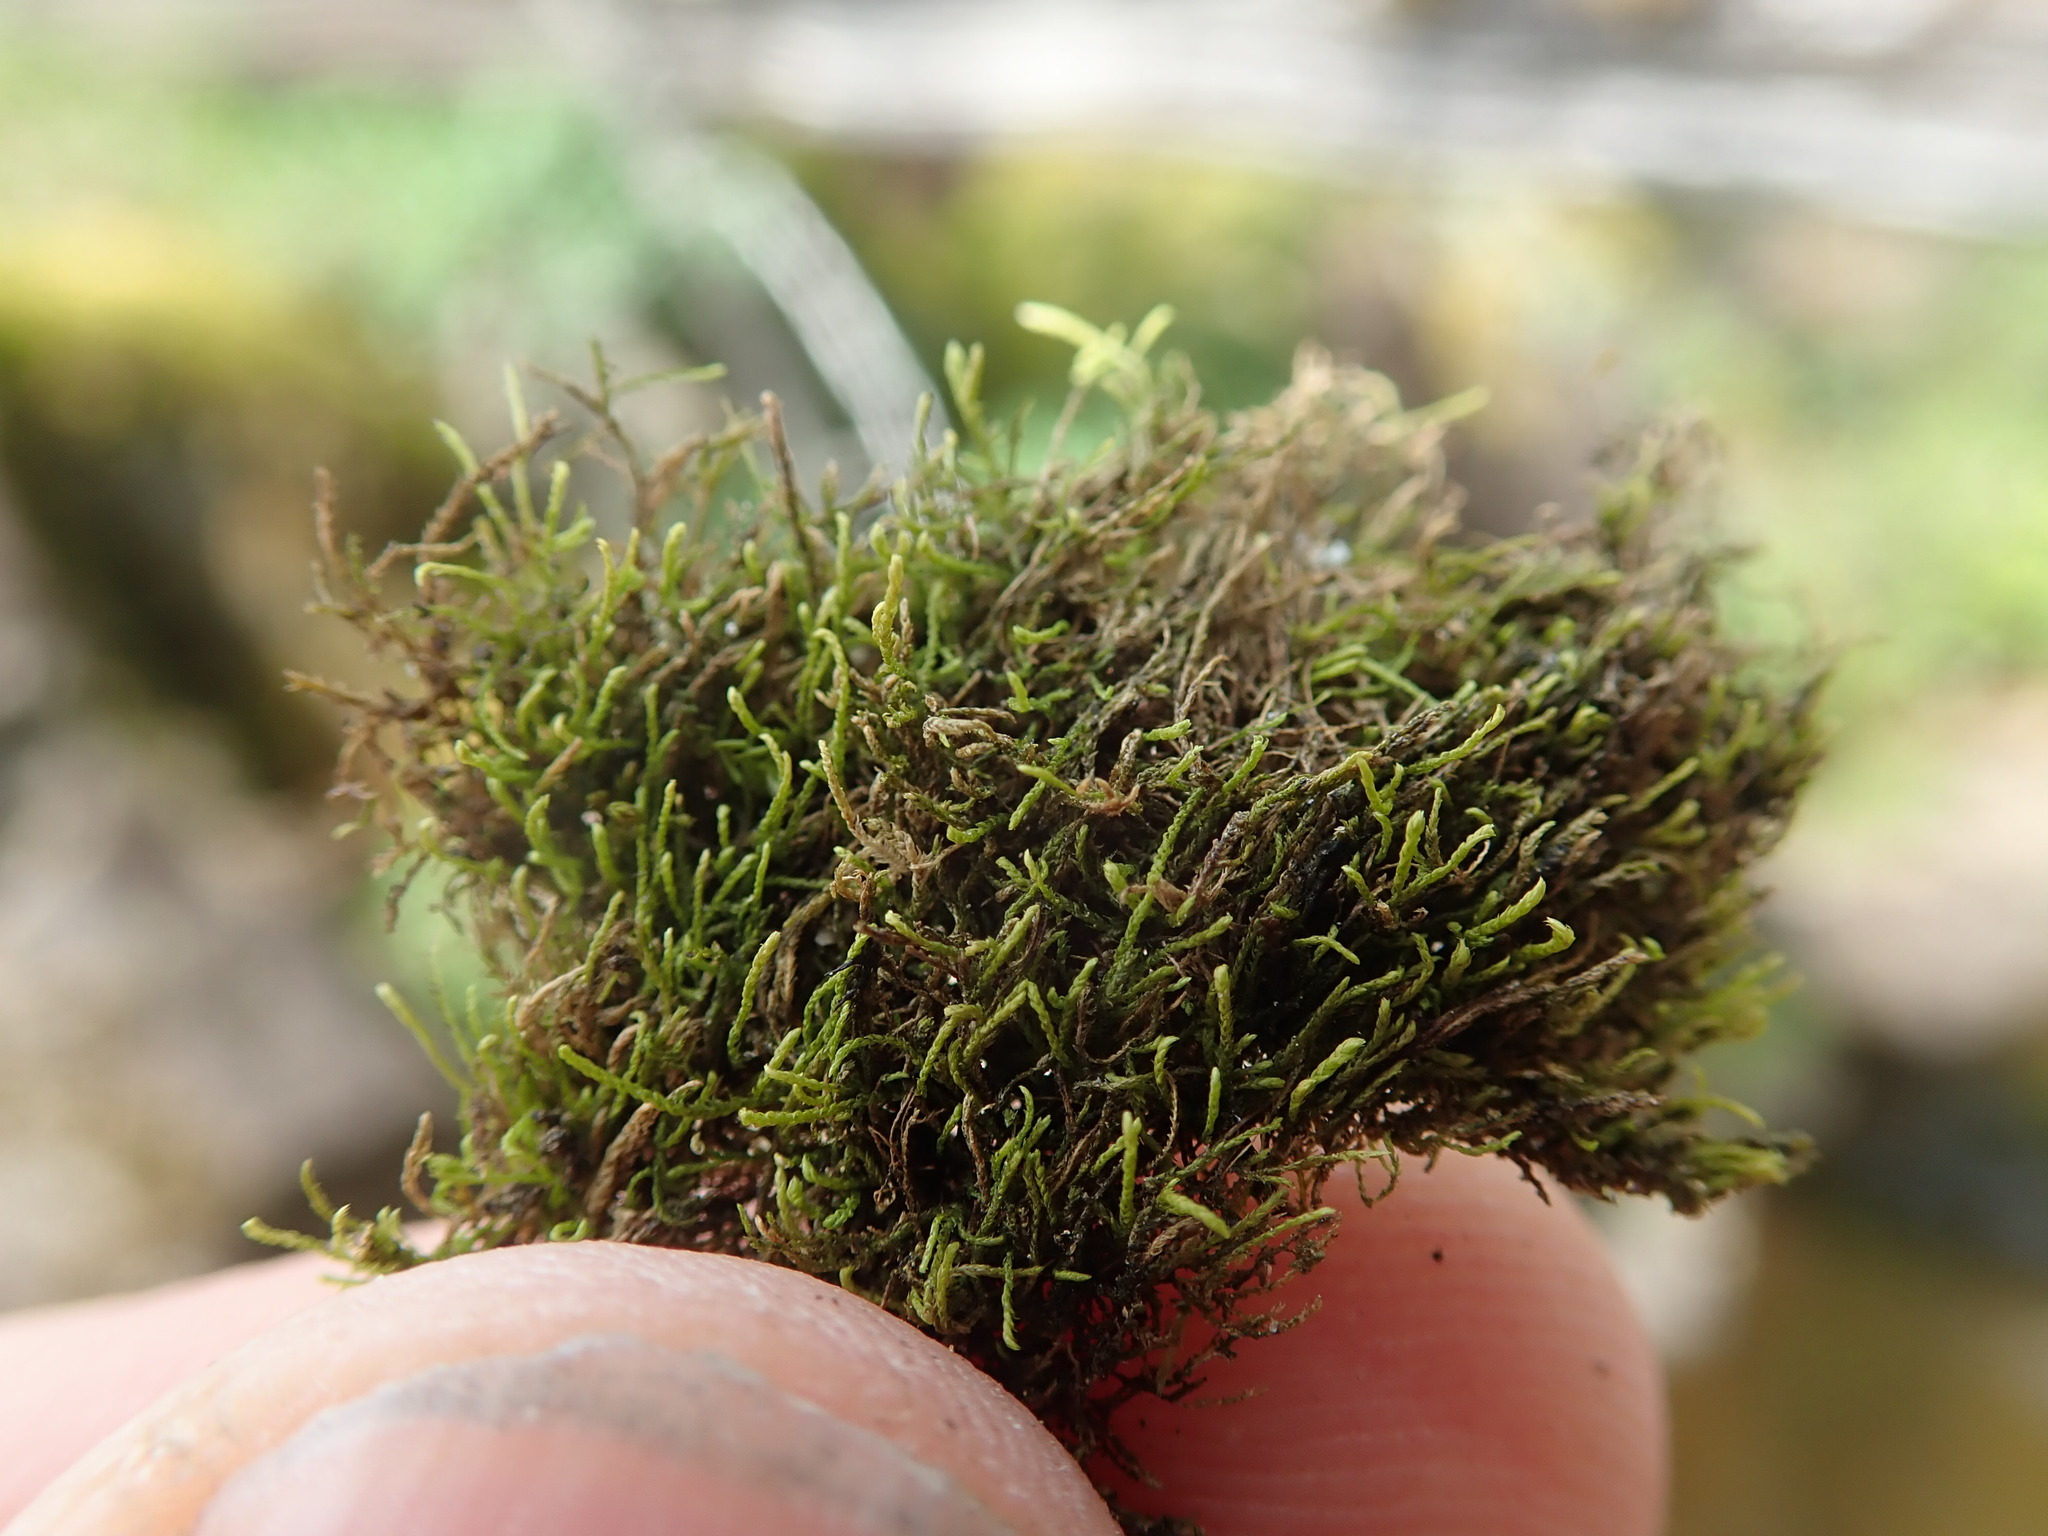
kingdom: Plantae
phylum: Bryophyta
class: Bryopsida
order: Hypnales
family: Lembophyllaceae
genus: Heterocladium
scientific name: Heterocladium macounii
